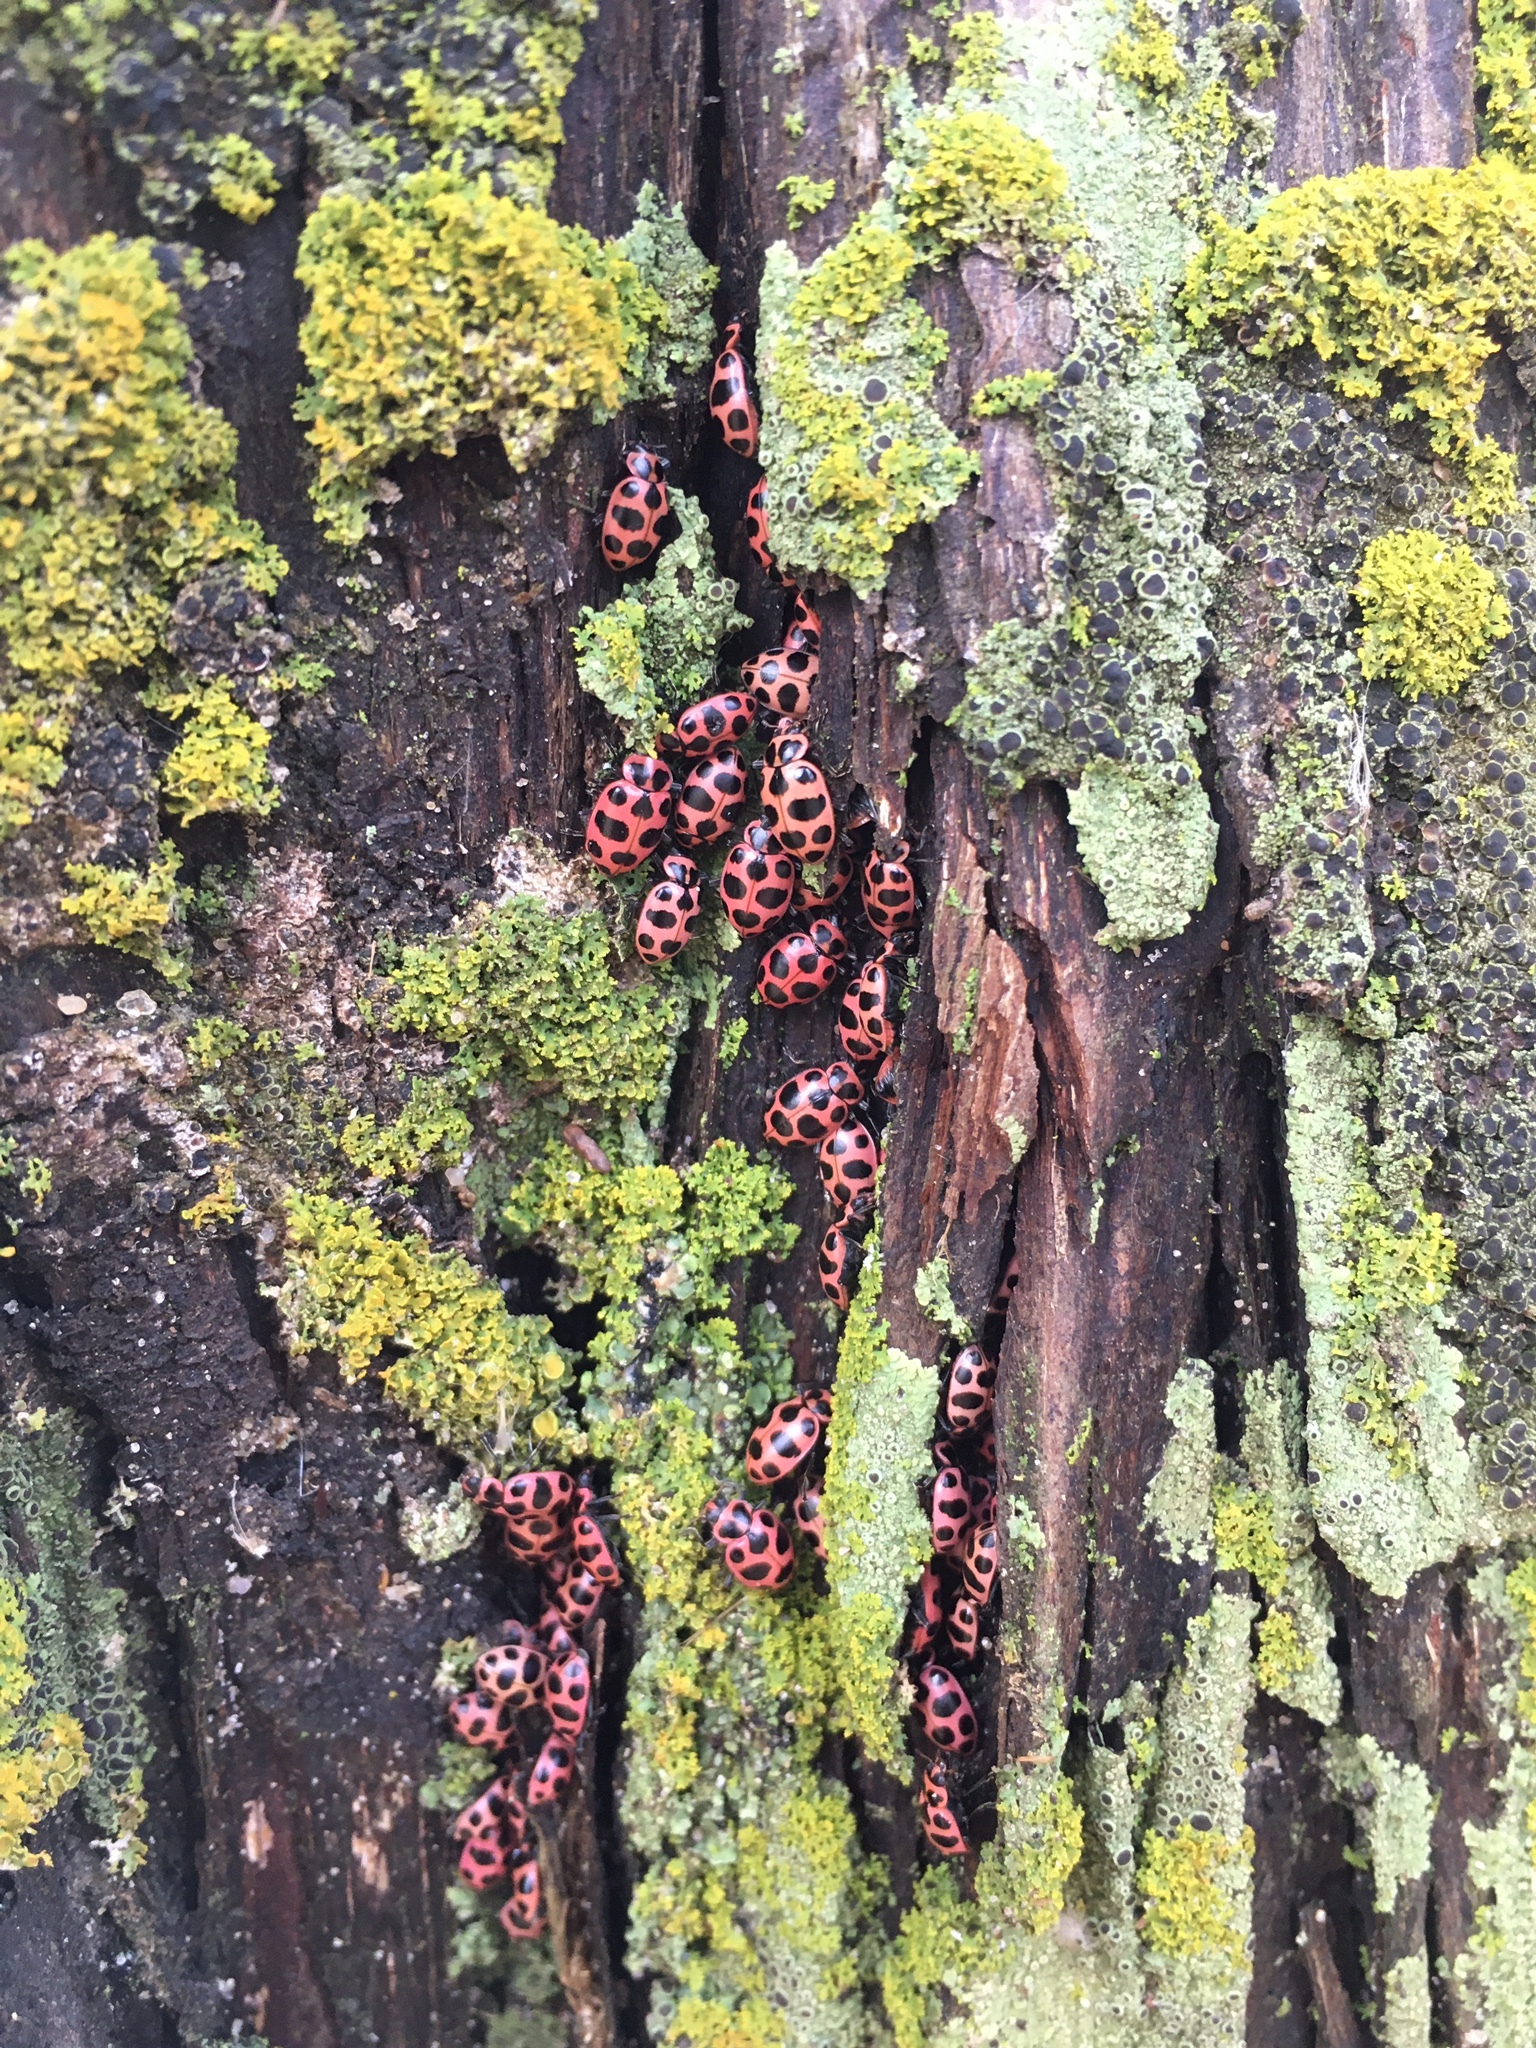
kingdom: Animalia
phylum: Arthropoda
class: Insecta
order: Coleoptera
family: Coccinellidae
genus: Coleomegilla
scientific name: Coleomegilla maculata
